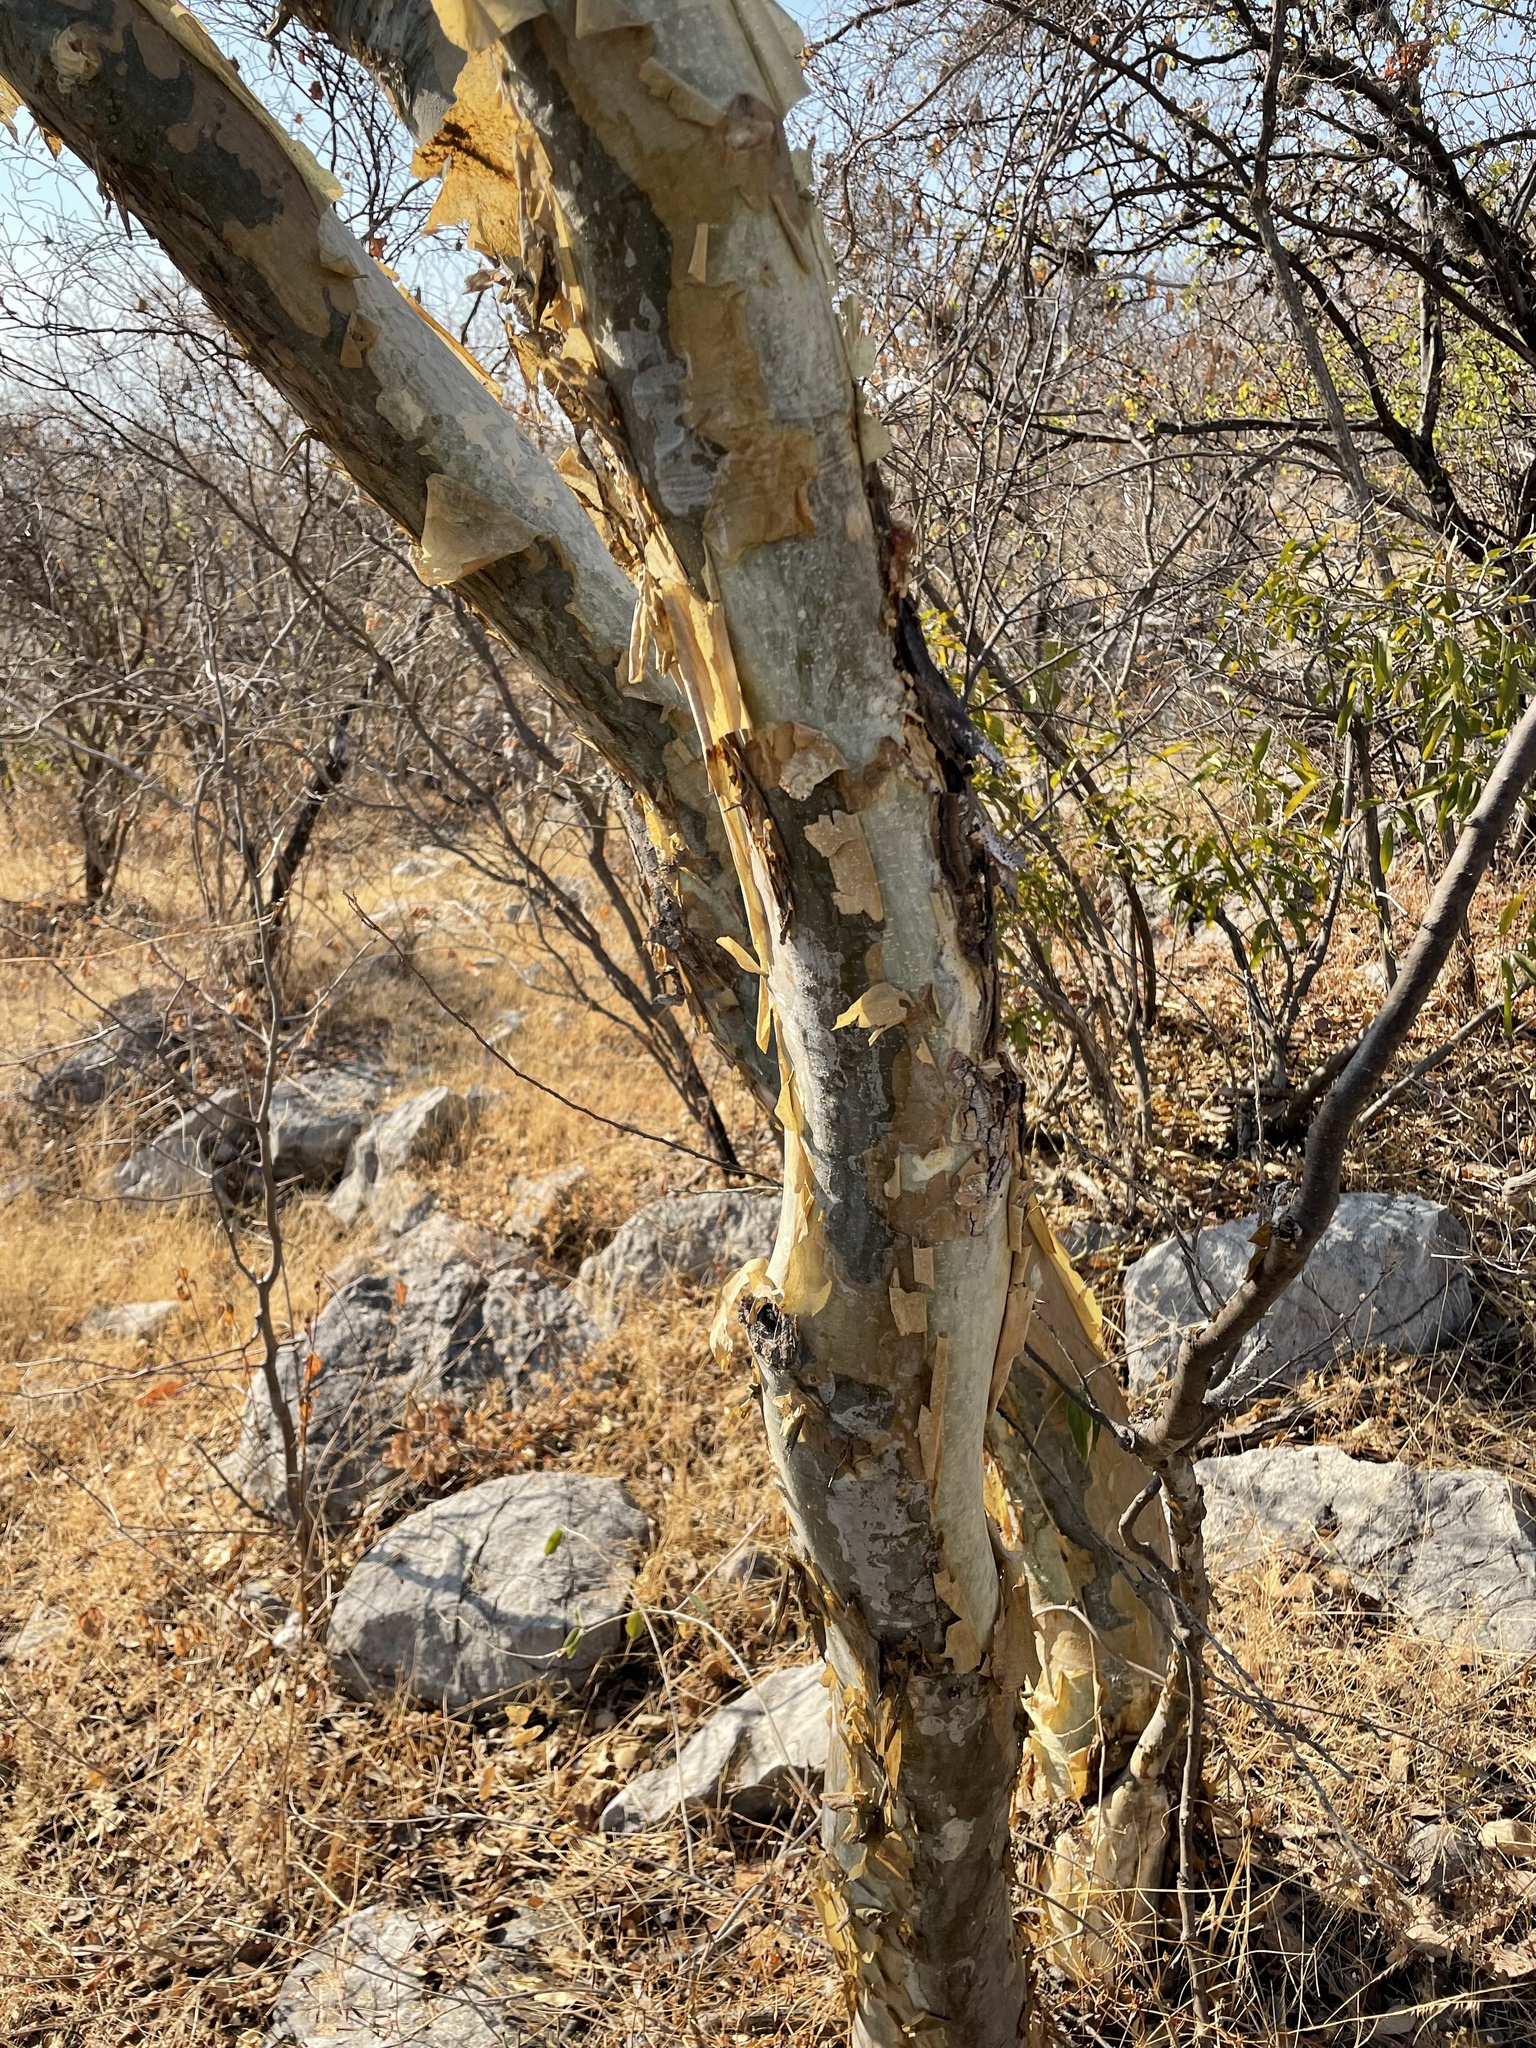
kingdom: Plantae
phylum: Tracheophyta
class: Magnoliopsida
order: Fabales
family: Fabaceae
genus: Mariosousa
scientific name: Mariosousa salazarii
